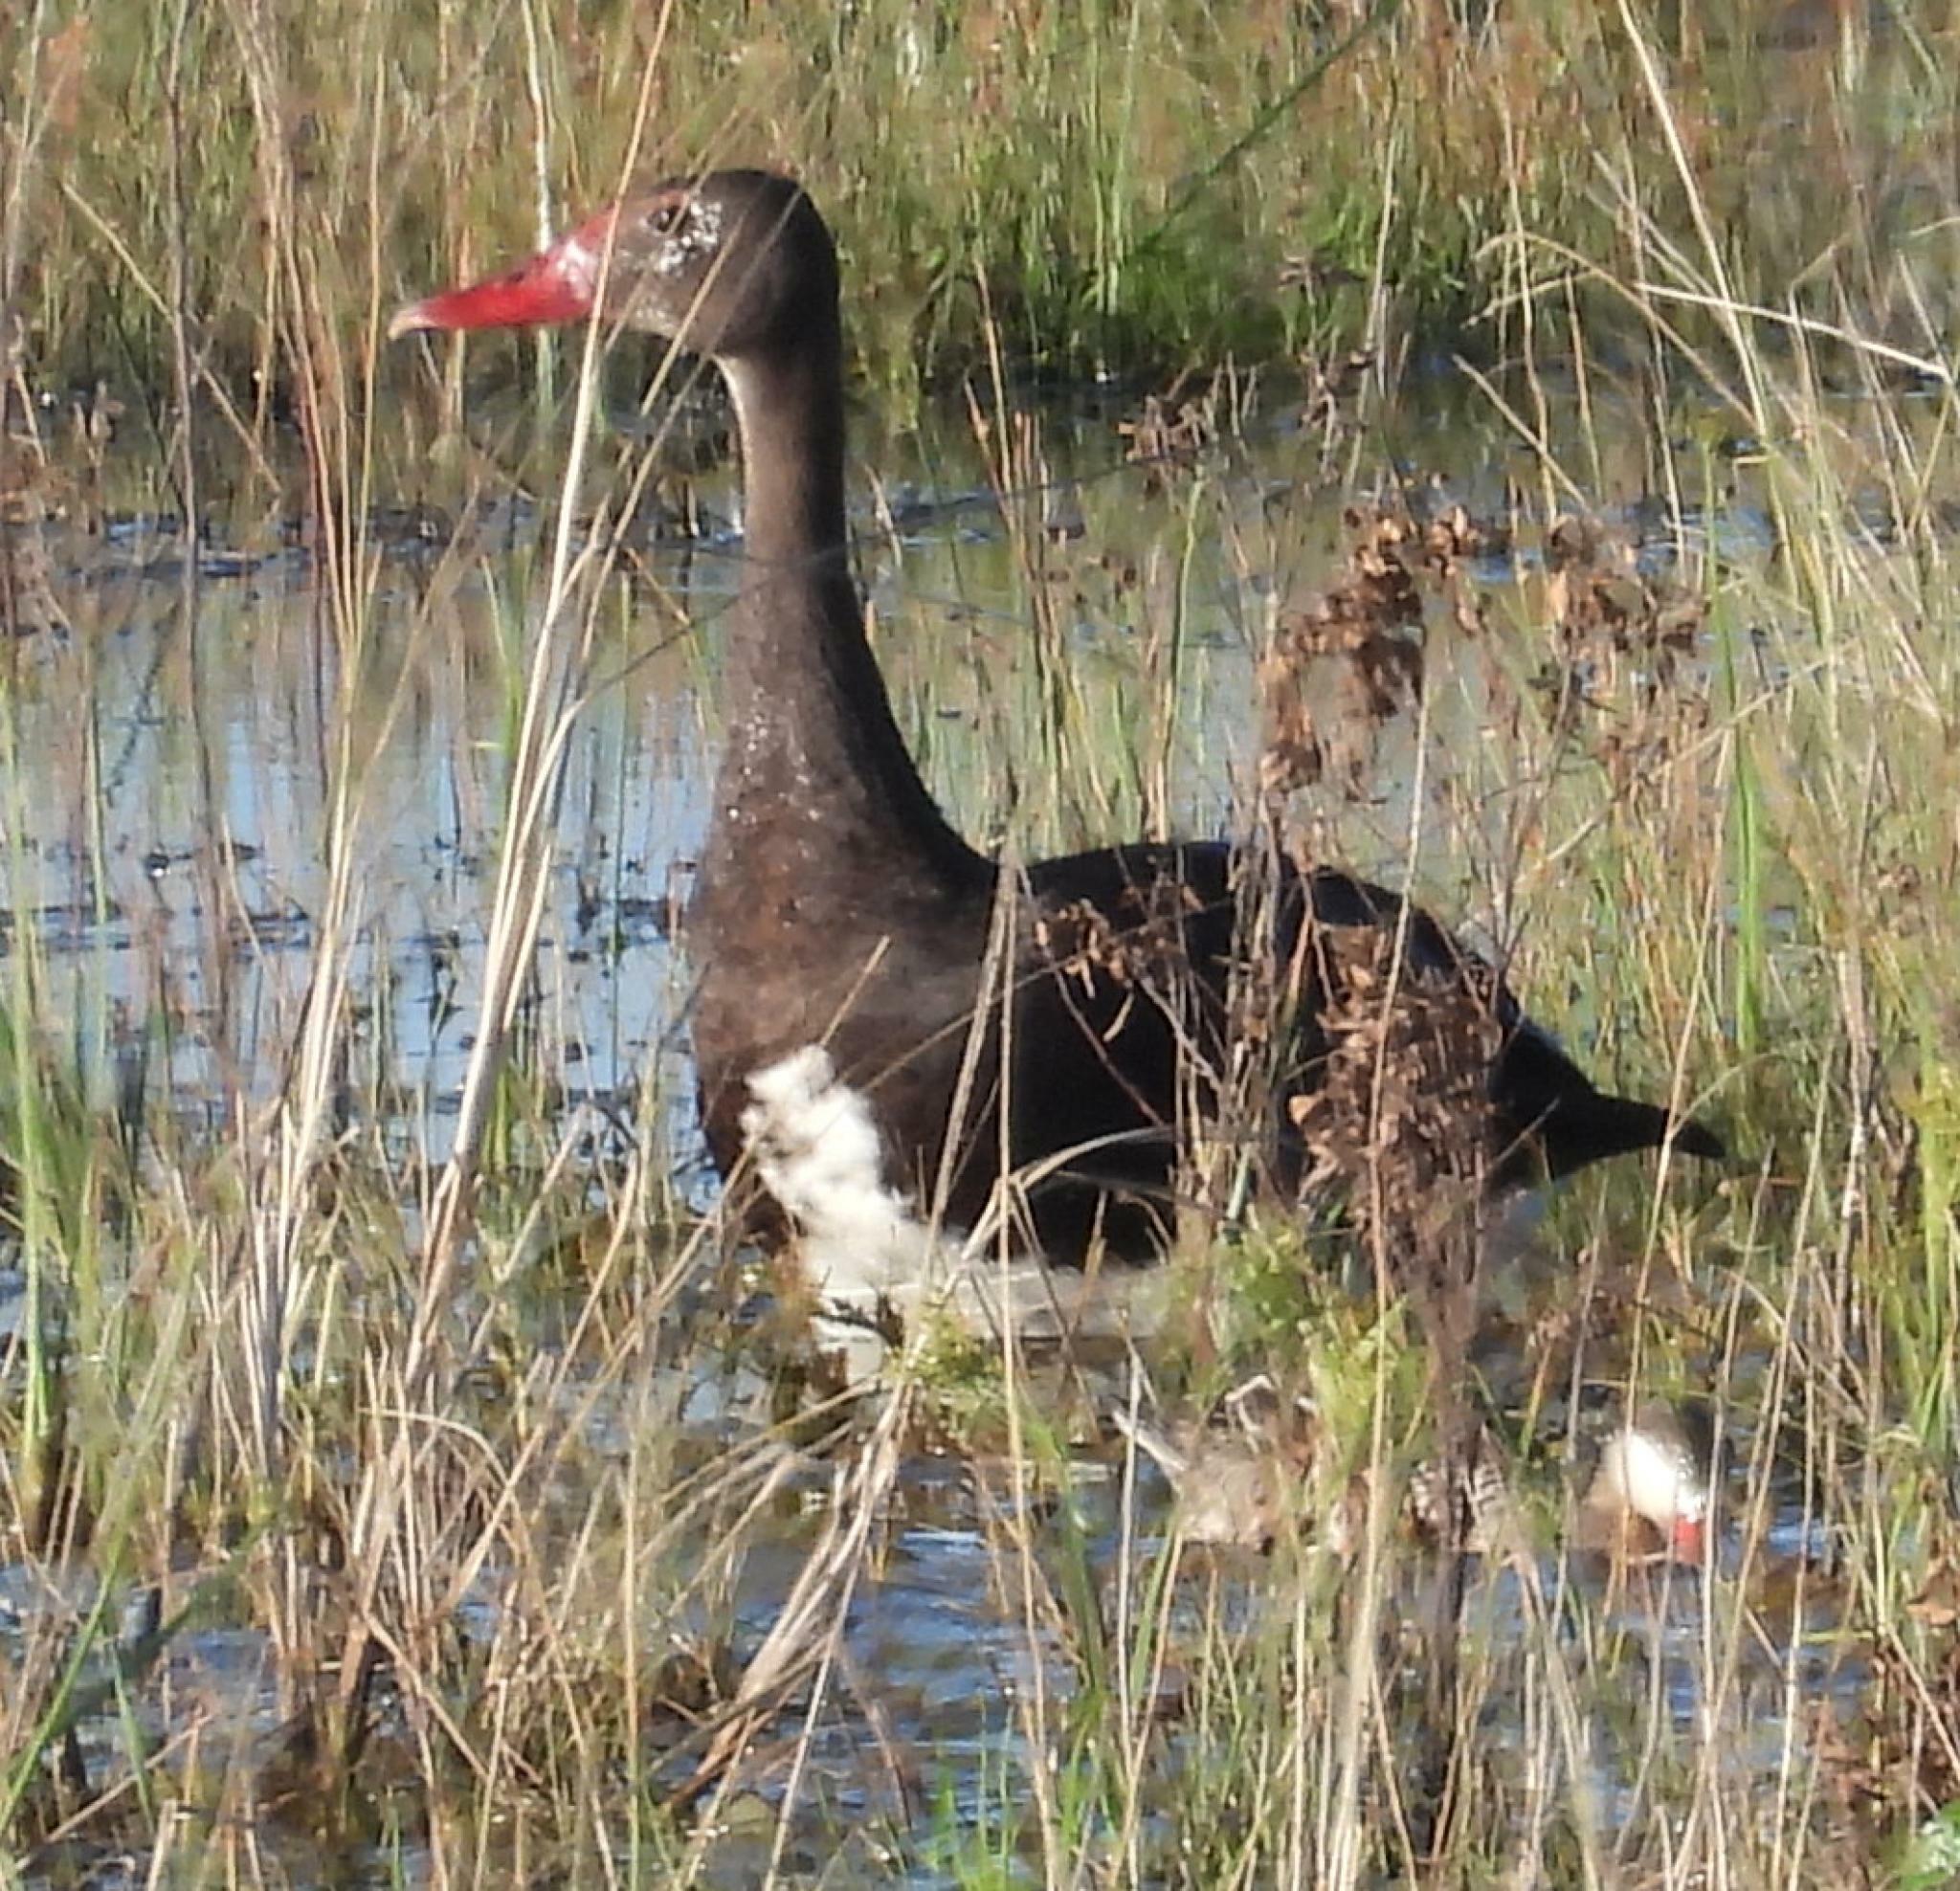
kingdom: Animalia
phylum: Chordata
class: Aves
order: Anseriformes
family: Anatidae
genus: Plectropterus
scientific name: Plectropterus gambensis
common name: Spur-winged goose
